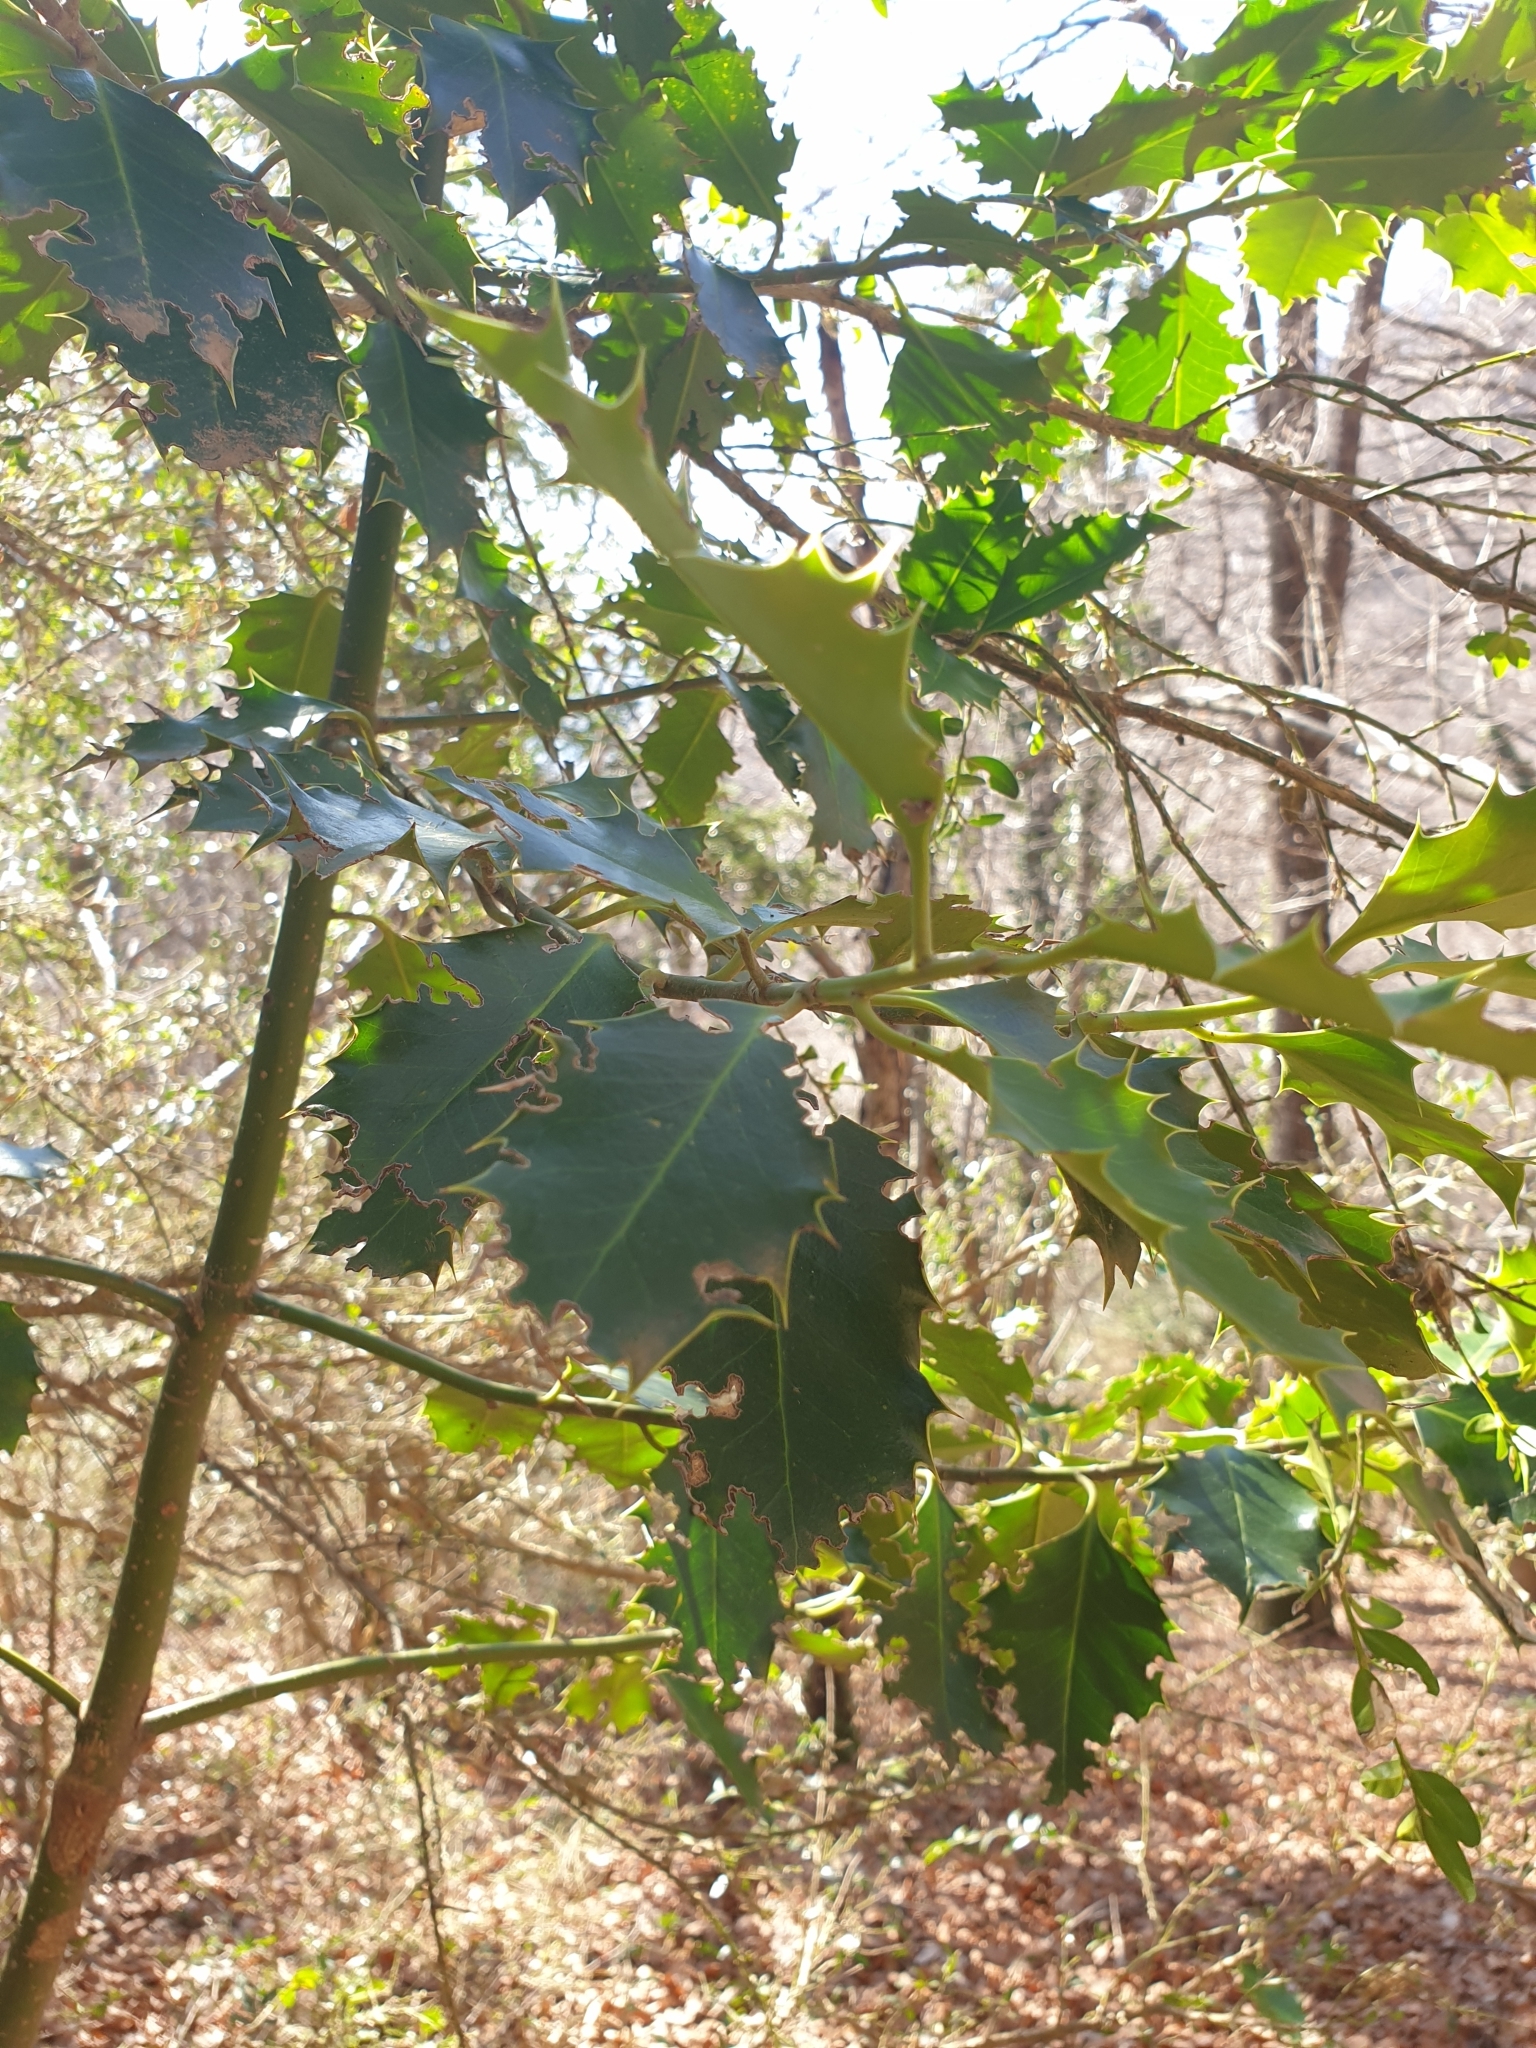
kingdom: Plantae
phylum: Tracheophyta
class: Magnoliopsida
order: Aquifoliales
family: Aquifoliaceae
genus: Ilex
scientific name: Ilex aquifolium
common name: English holly
